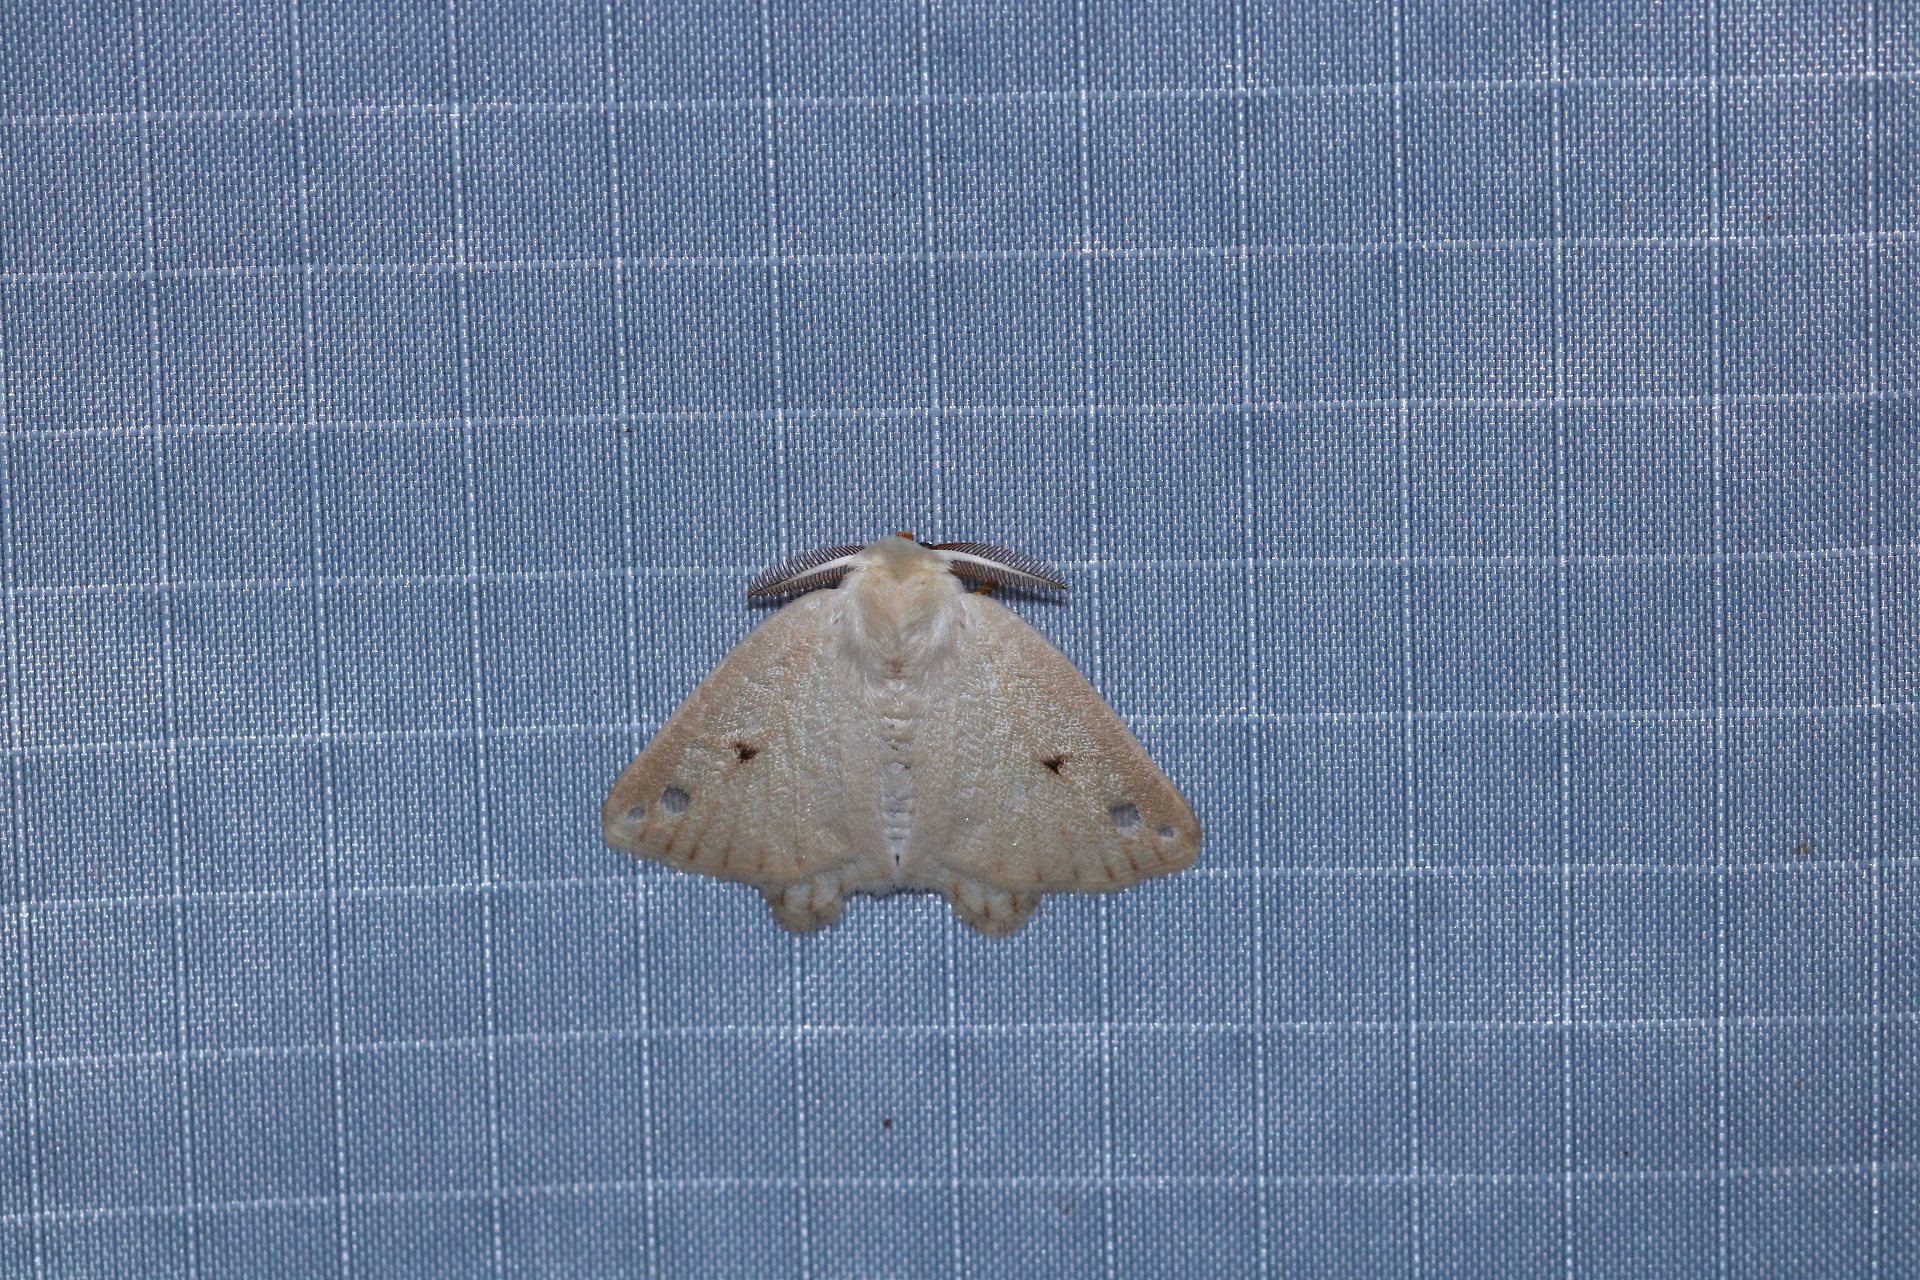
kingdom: Animalia
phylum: Arthropoda
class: Insecta
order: Lepidoptera
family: Erebidae
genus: Arctornis
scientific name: Arctornis obtusa
